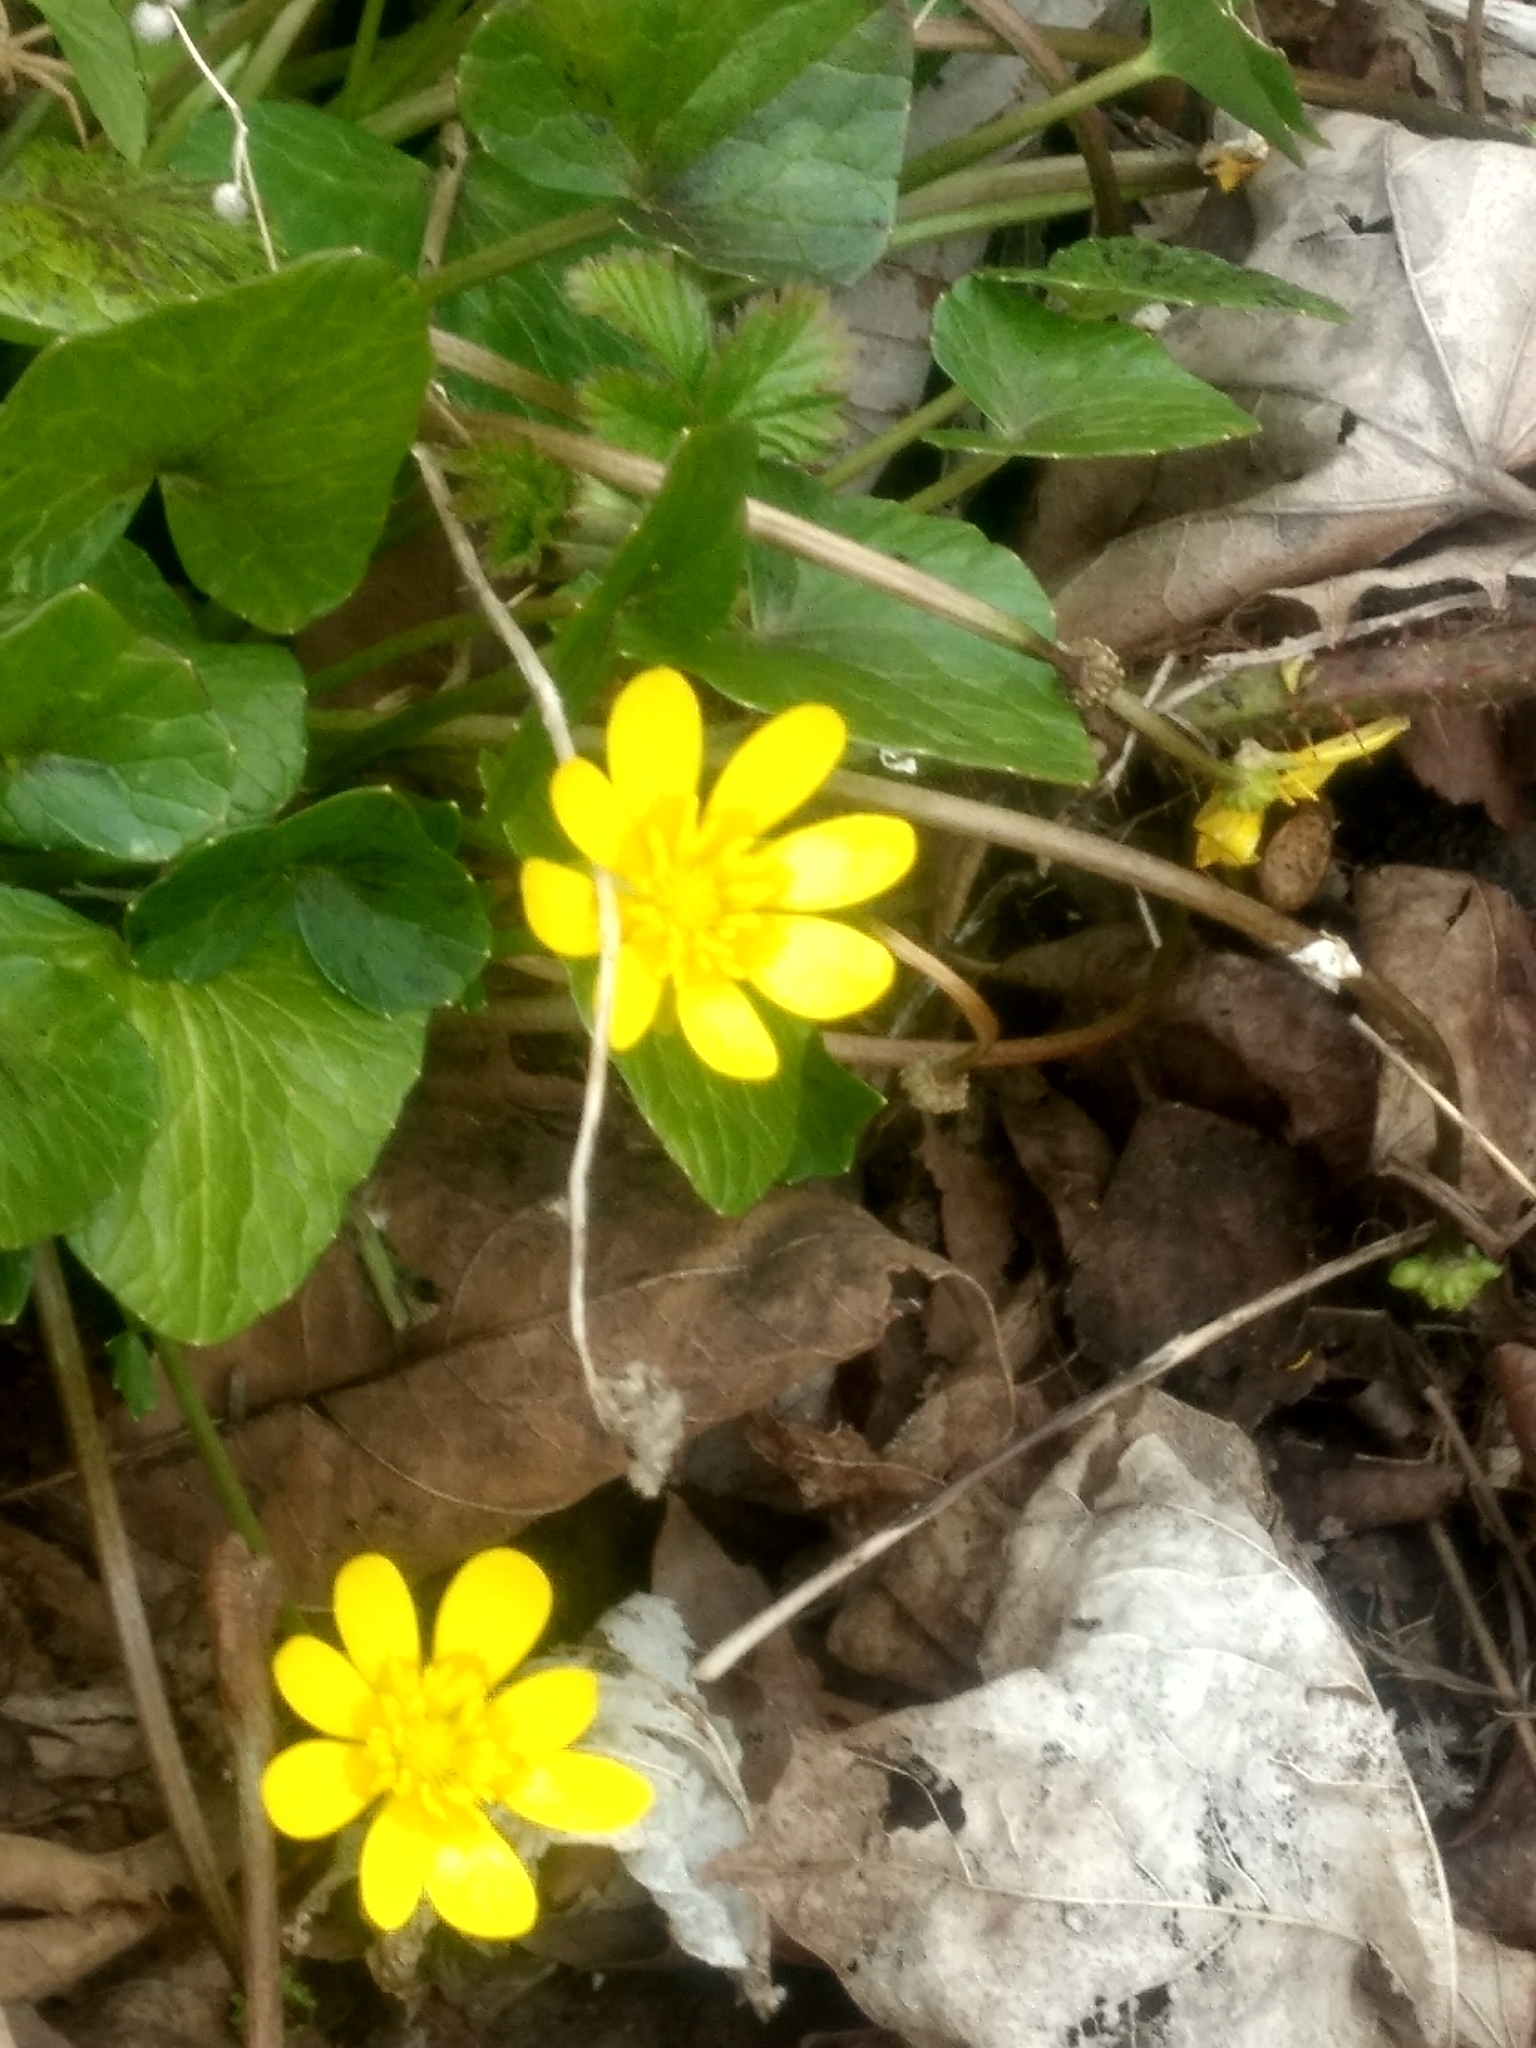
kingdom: Plantae
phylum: Tracheophyta
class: Magnoliopsida
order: Ranunculales
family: Ranunculaceae
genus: Ficaria
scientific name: Ficaria verna
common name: Lesser celandine
